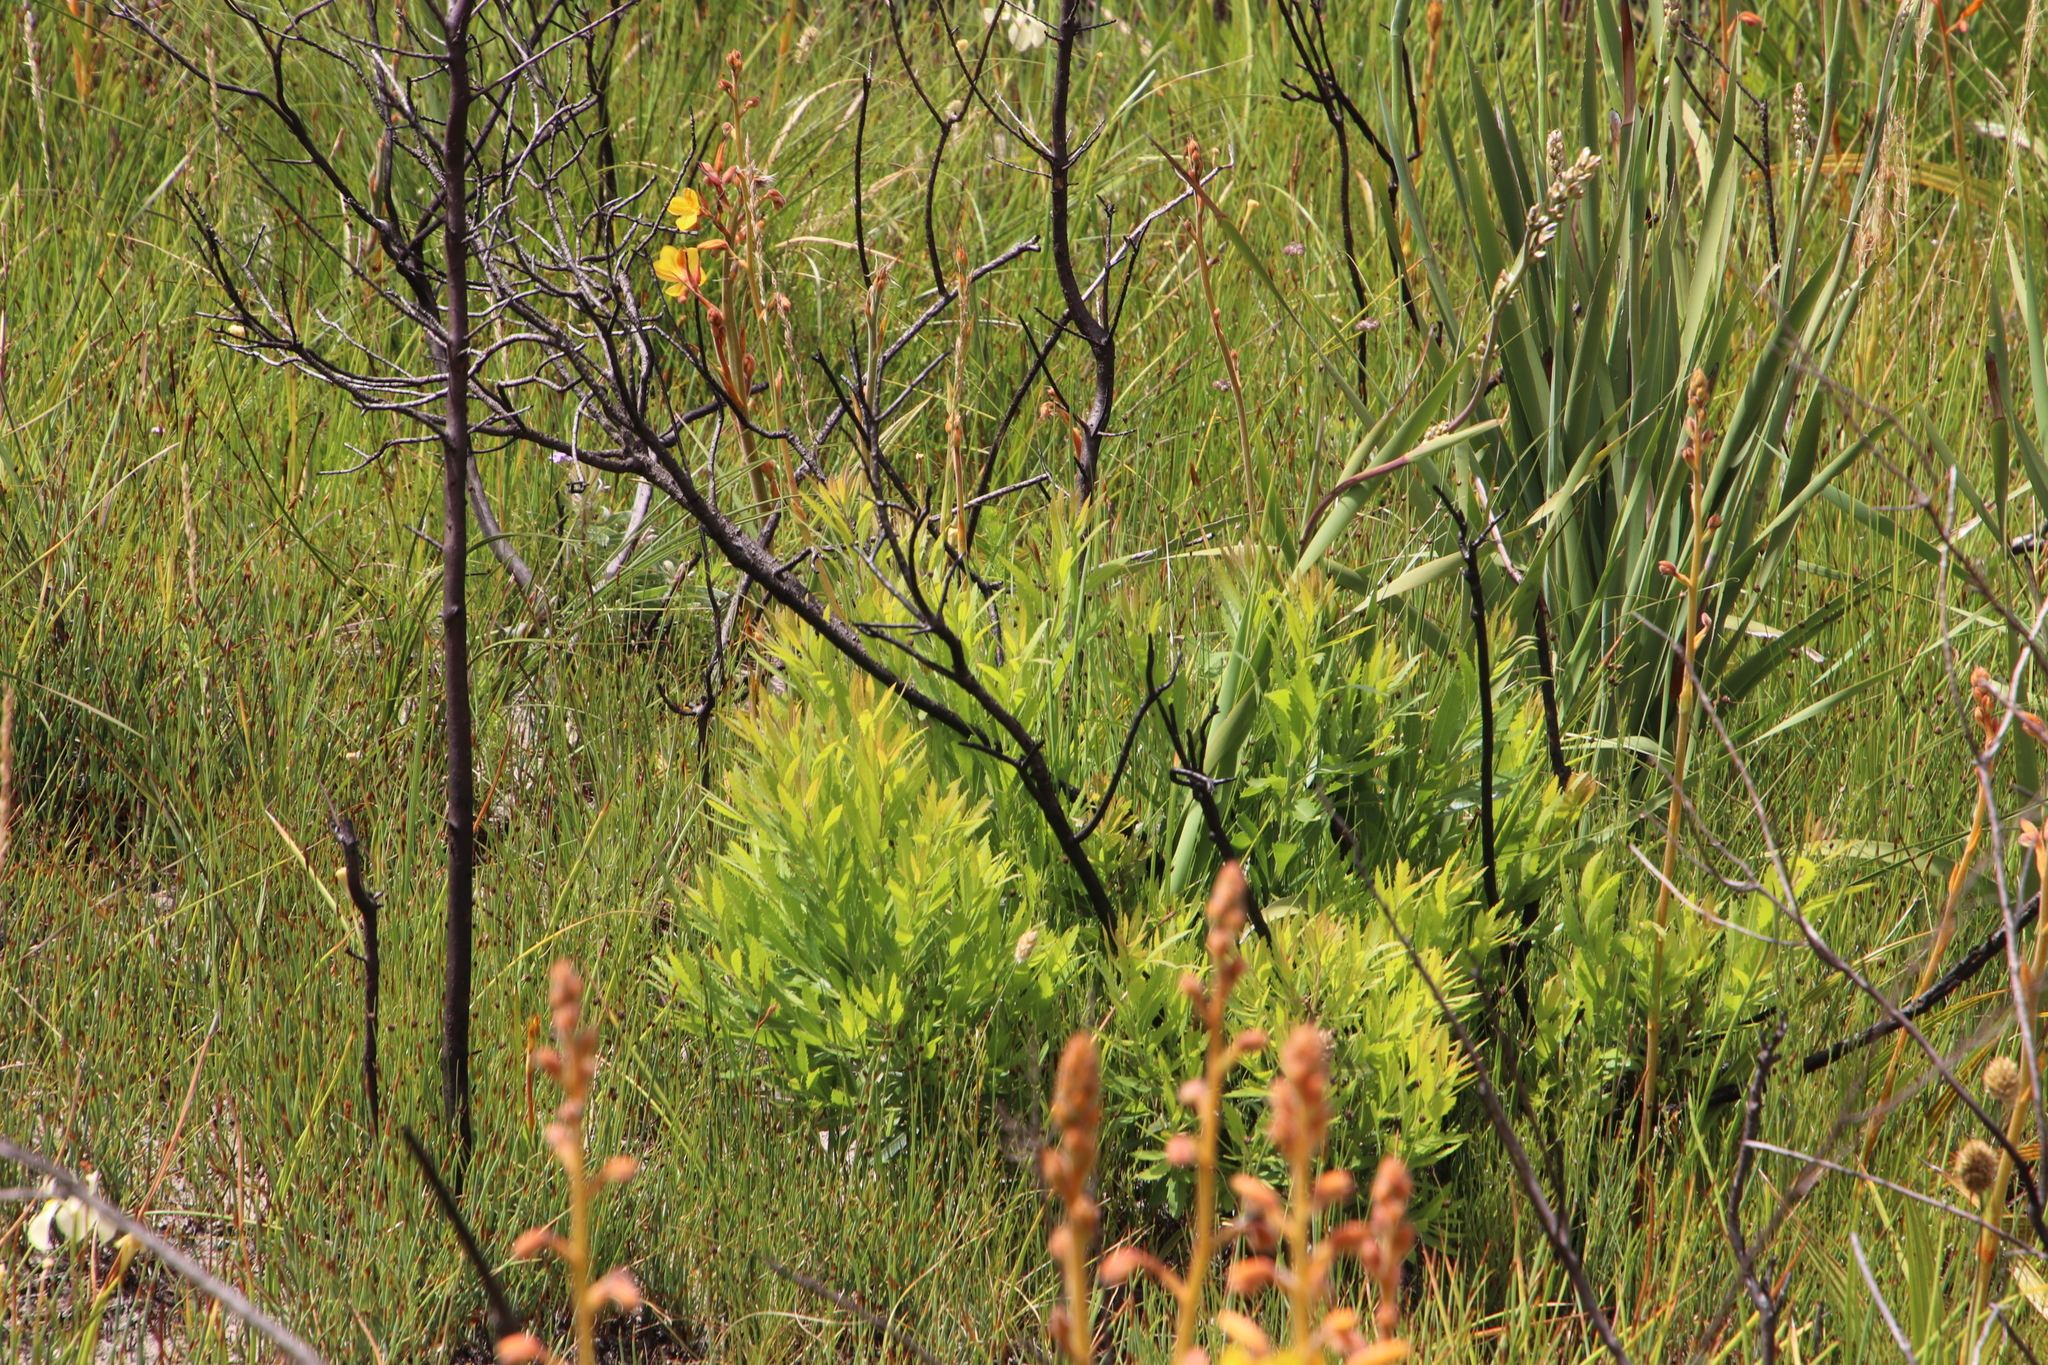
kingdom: Plantae
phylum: Tracheophyta
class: Magnoliopsida
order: Fagales
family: Myricaceae
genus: Morella
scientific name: Morella serrata
